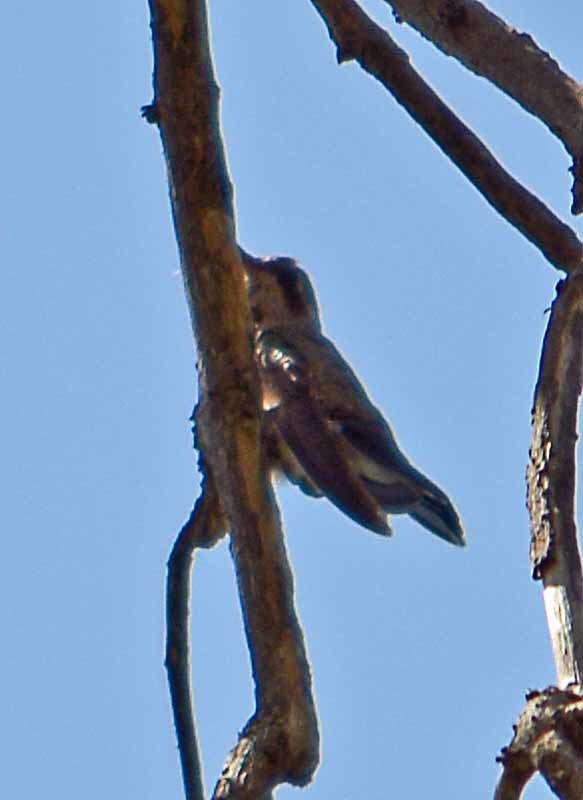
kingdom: Animalia
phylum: Chordata
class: Aves
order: Apodiformes
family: Trochilidae
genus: Cynanthus
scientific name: Cynanthus latirostris
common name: Broad-billed hummingbird
